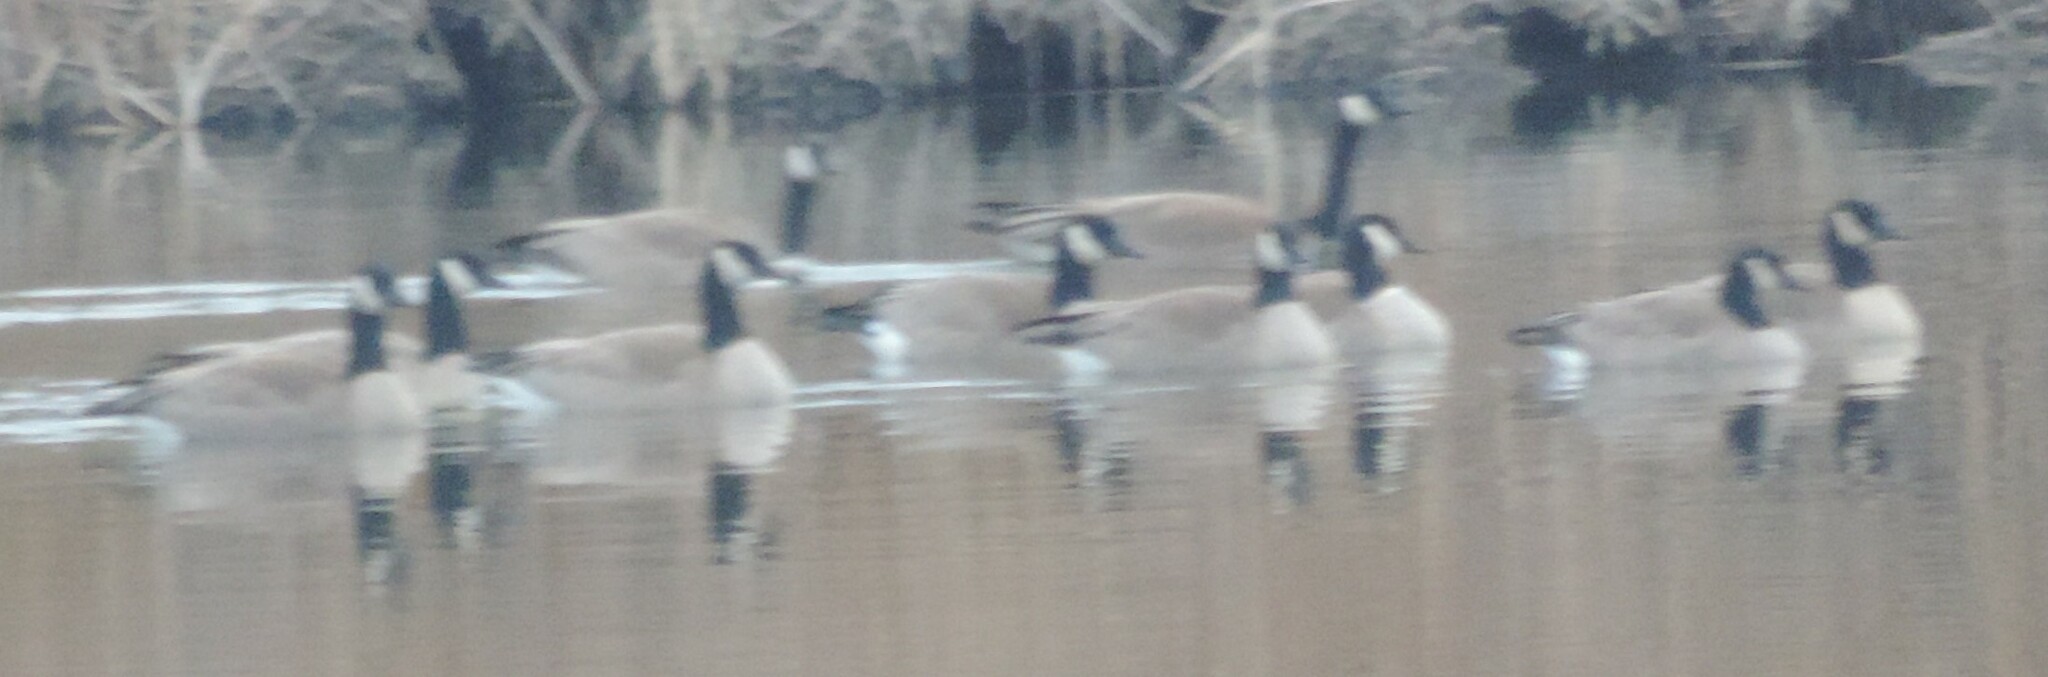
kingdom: Animalia
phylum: Chordata
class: Aves
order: Anseriformes
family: Anatidae
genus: Branta
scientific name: Branta canadensis
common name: Canada goose
